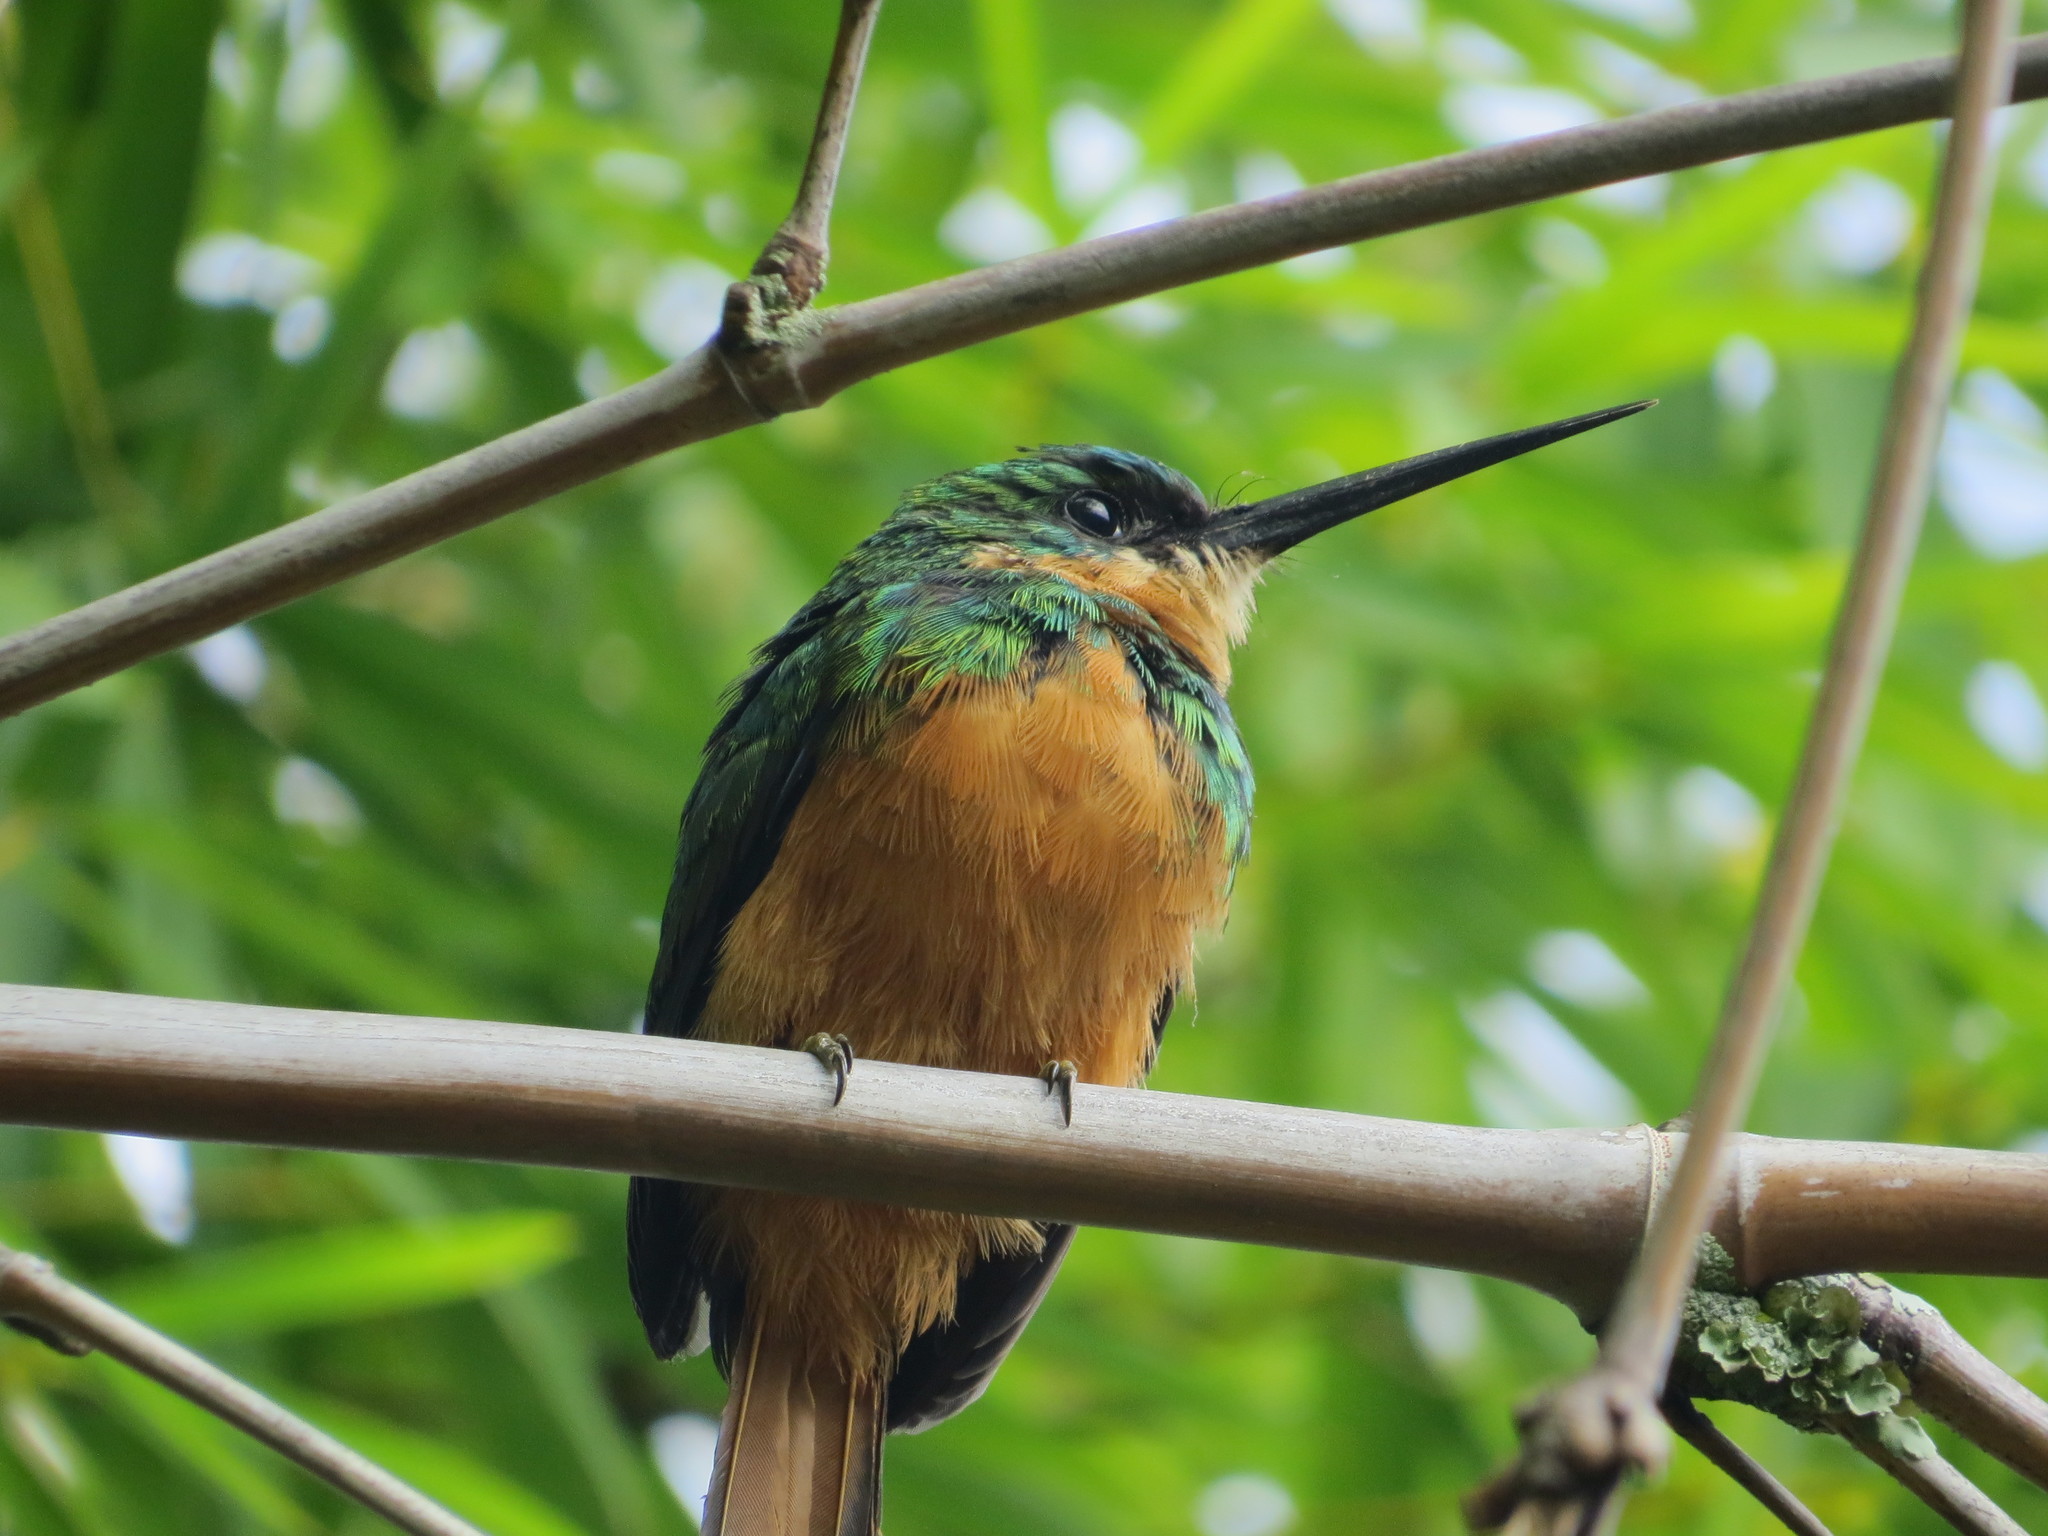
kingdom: Animalia
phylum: Chordata
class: Aves
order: Piciformes
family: Galbulidae
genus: Galbula
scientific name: Galbula ruficauda
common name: Rufous-tailed jacamar
